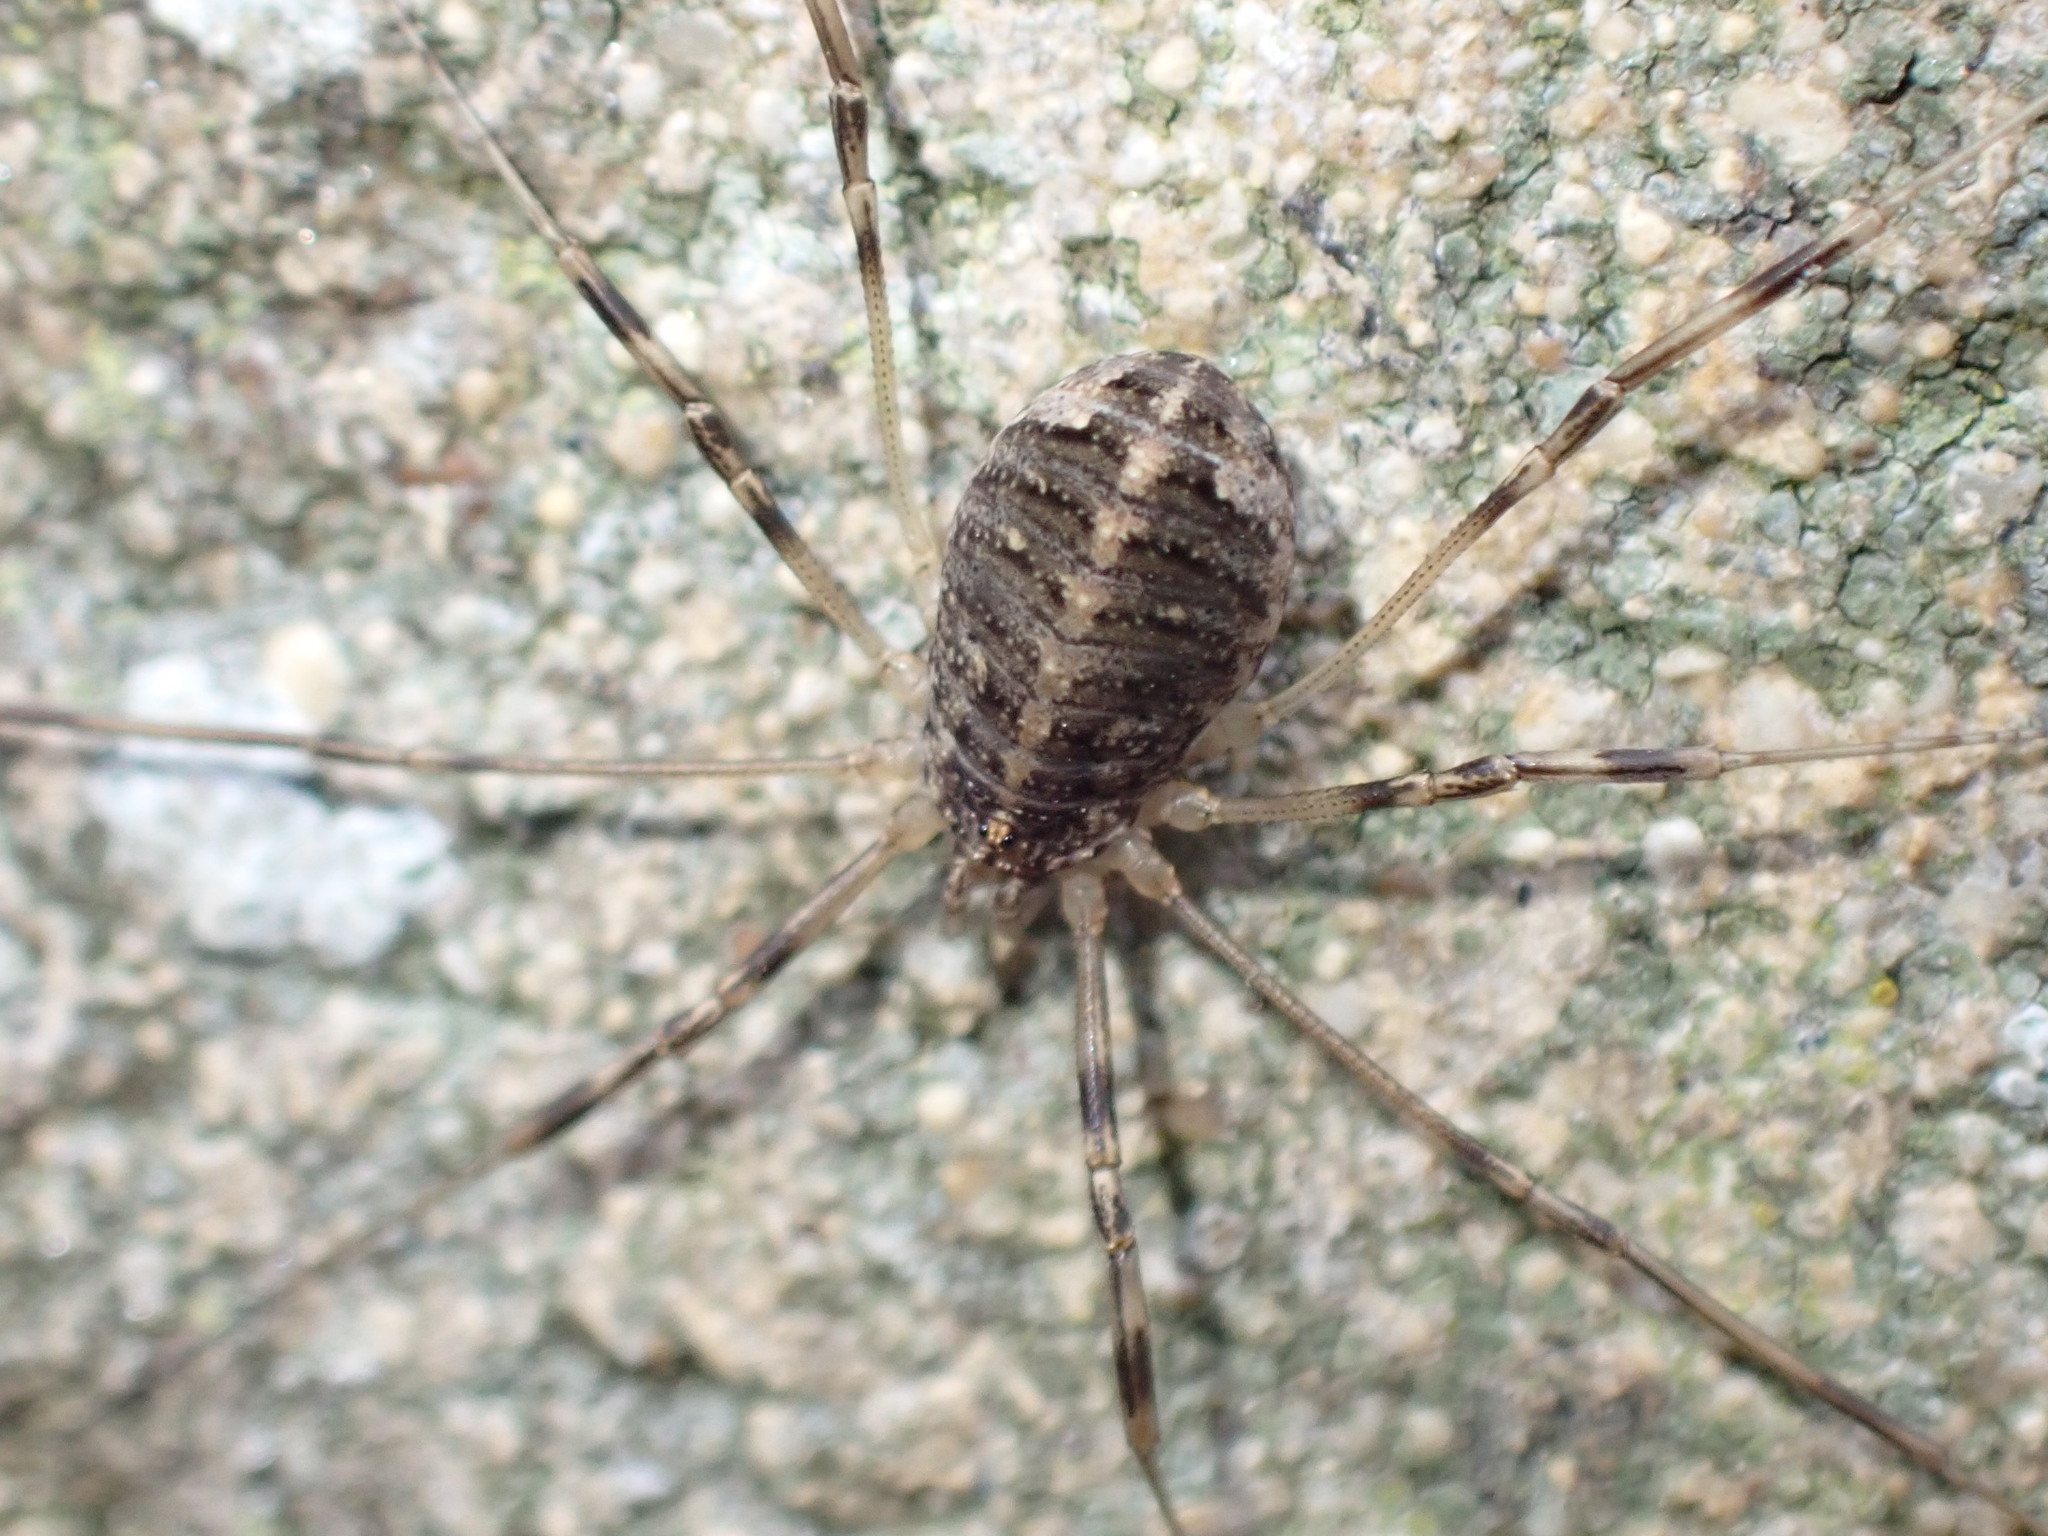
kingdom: Animalia
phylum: Arthropoda
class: Arachnida
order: Opiliones
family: Phalangiidae
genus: Opilio
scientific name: Opilio saxatilis
